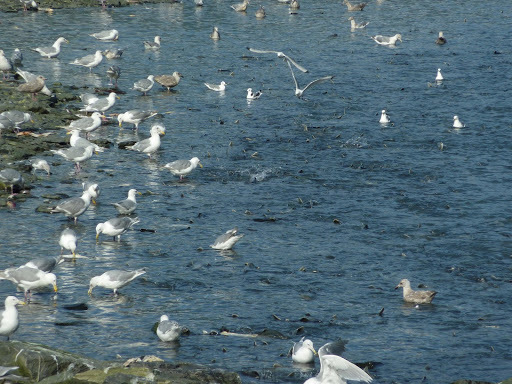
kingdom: Animalia
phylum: Chordata
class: Aves
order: Charadriiformes
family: Laridae
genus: Larus
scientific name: Larus glaucescens
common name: Glaucous-winged gull
